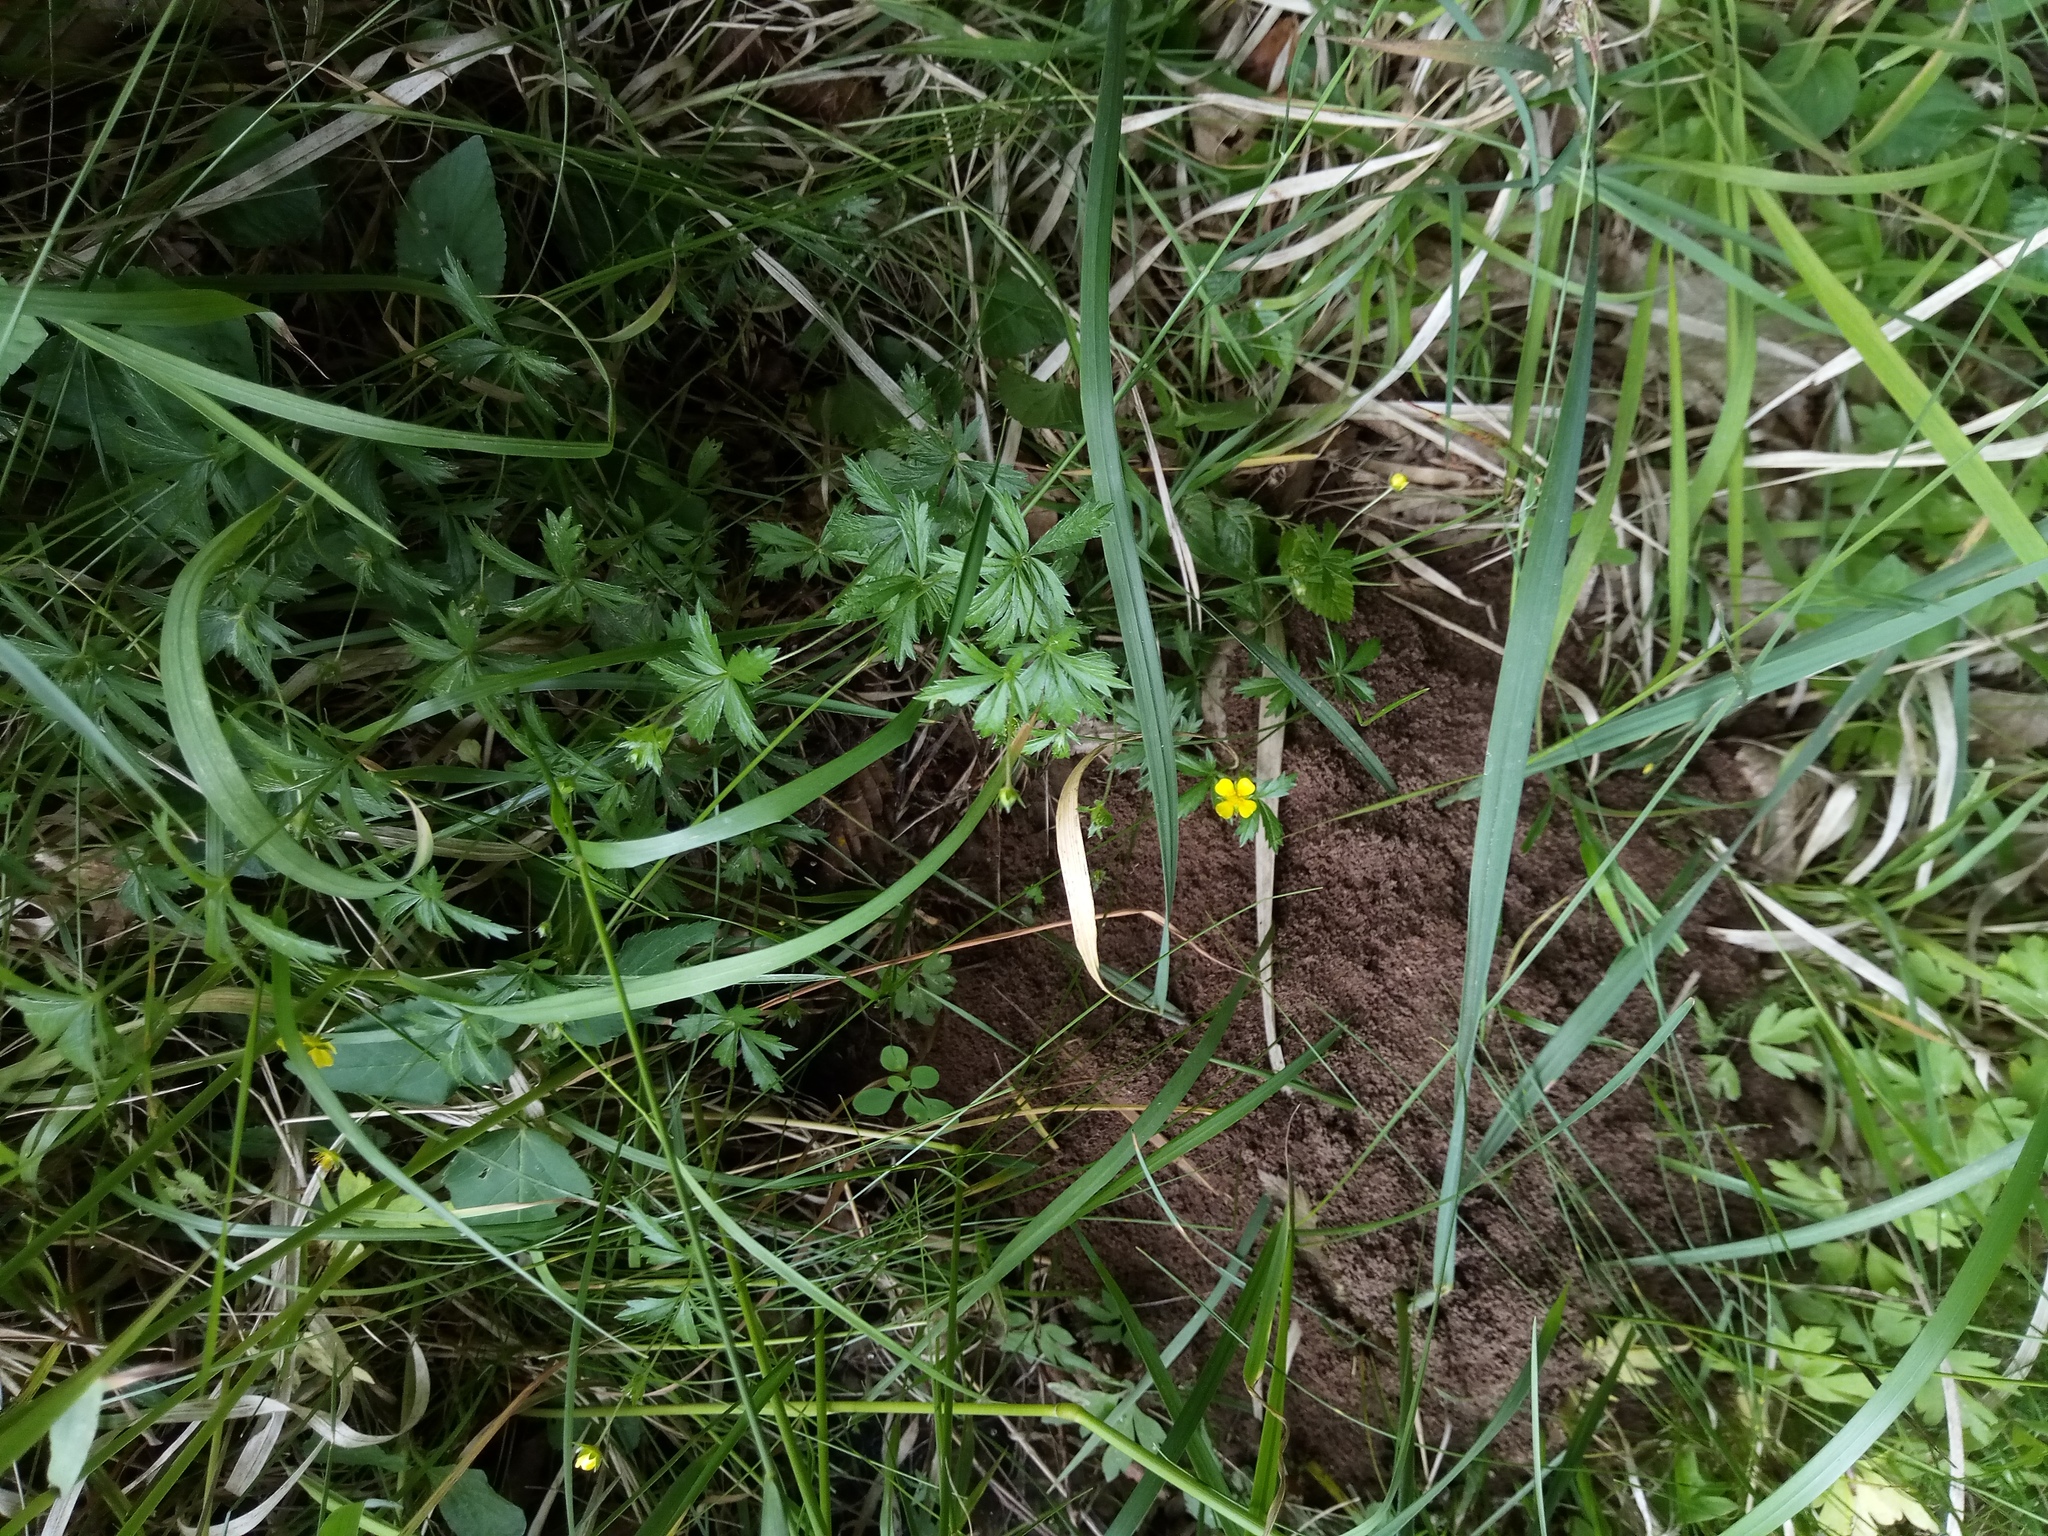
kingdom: Plantae
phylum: Tracheophyta
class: Magnoliopsida
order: Rosales
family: Rosaceae
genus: Potentilla
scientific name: Potentilla erecta
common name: Tormentil
